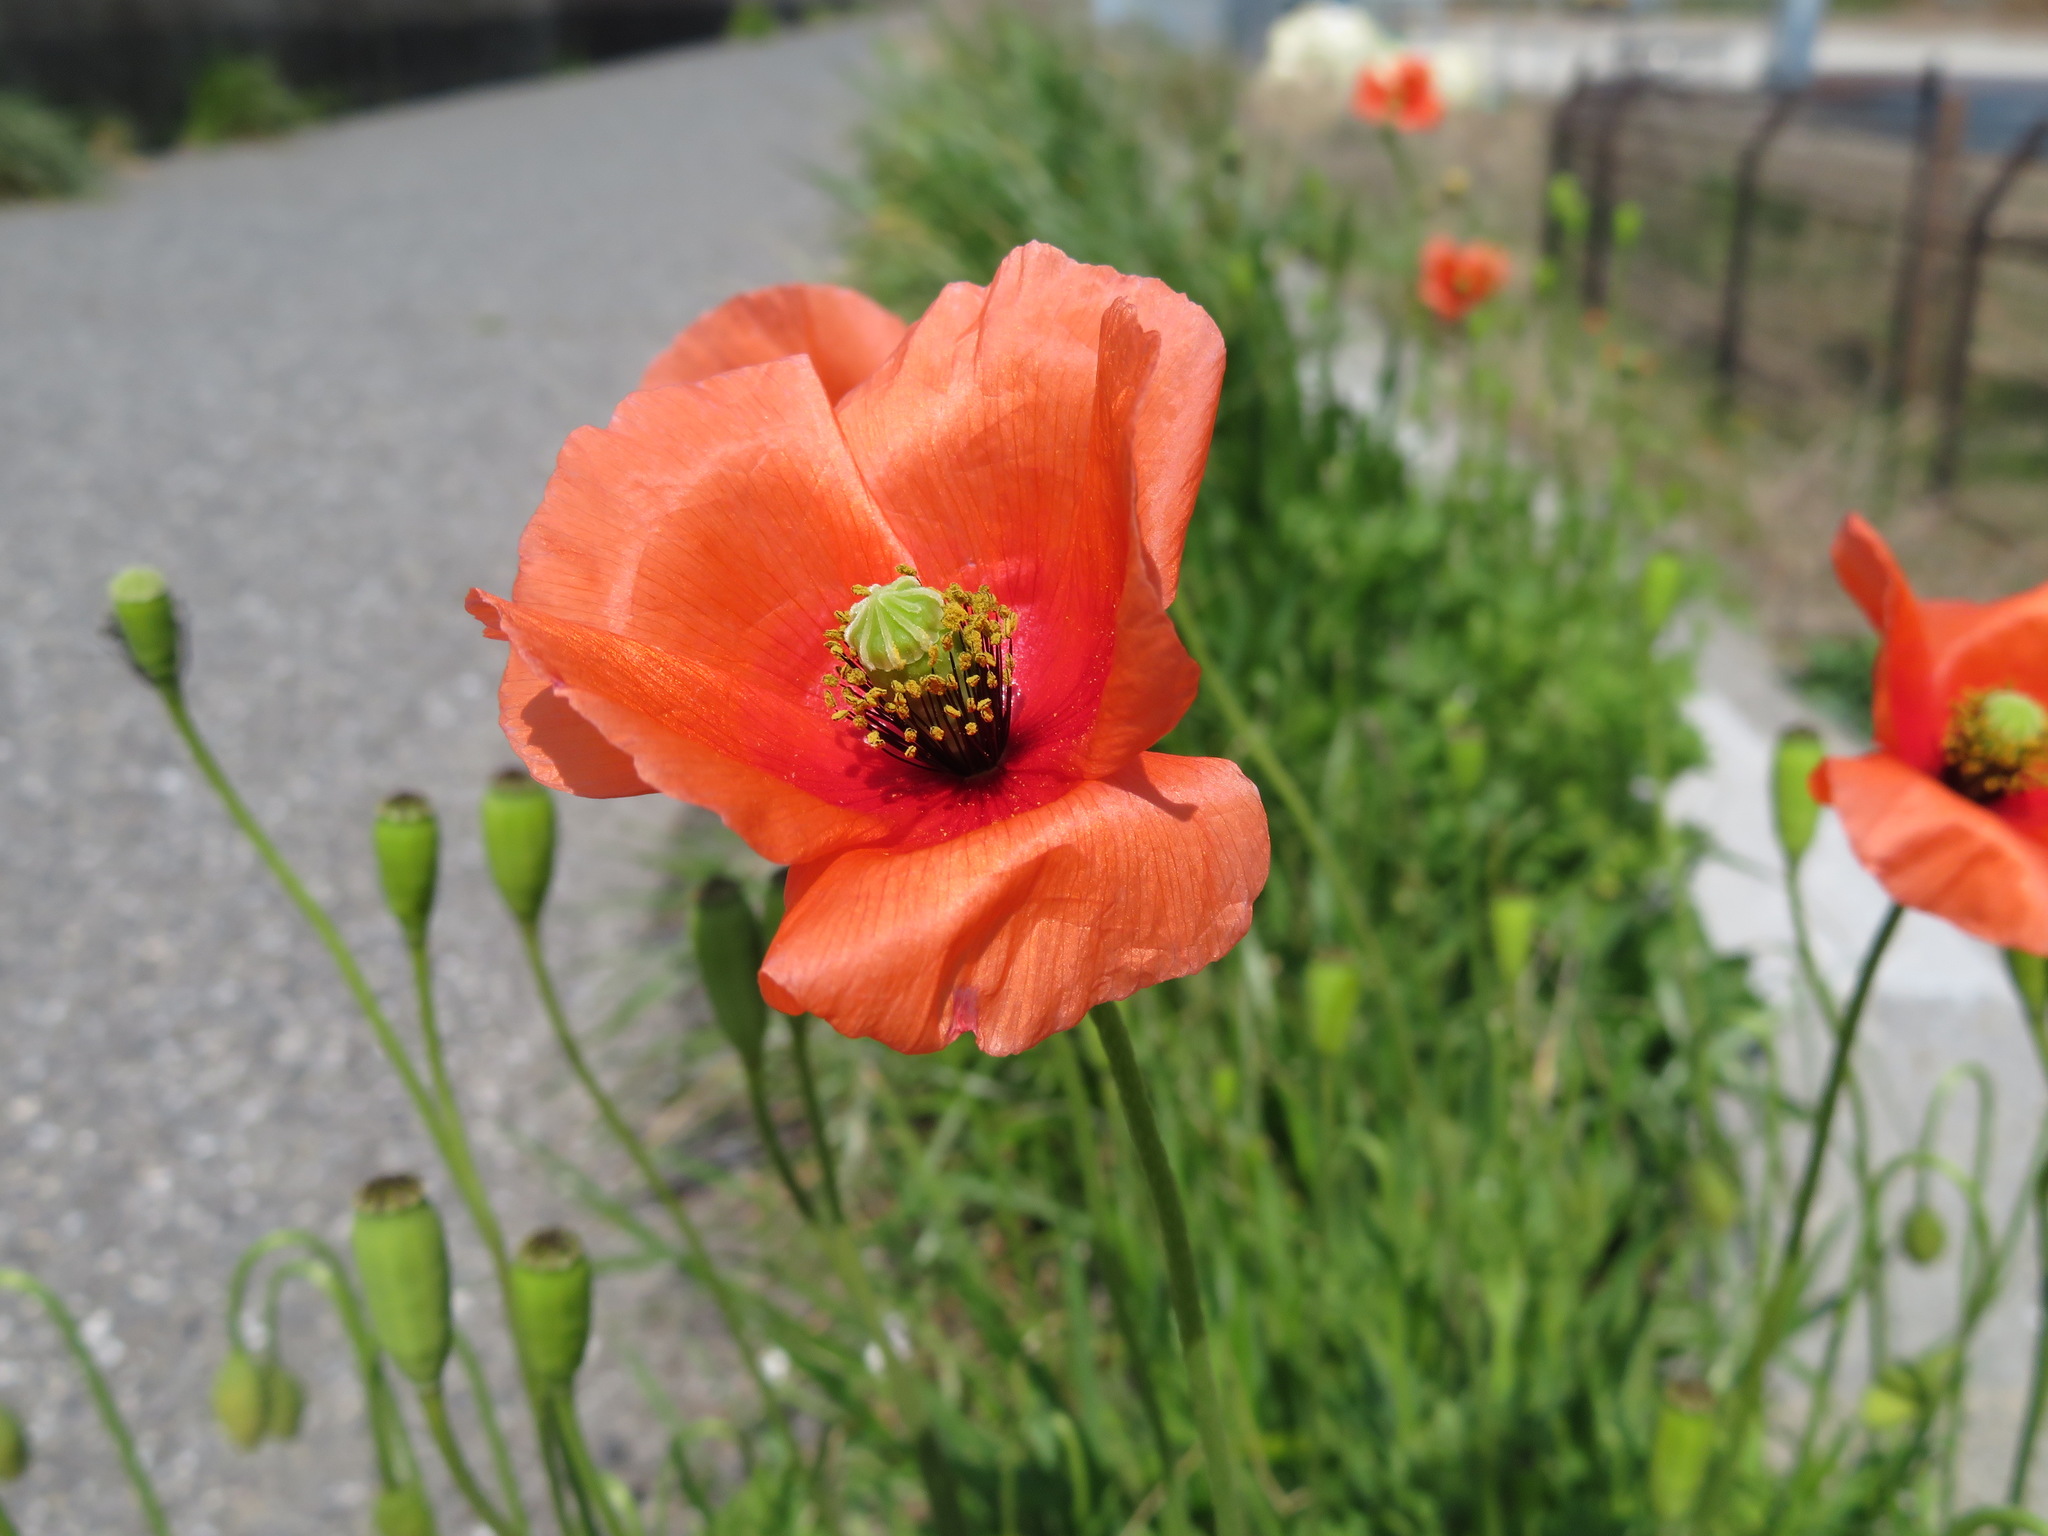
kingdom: Plantae
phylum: Tracheophyta
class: Magnoliopsida
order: Ranunculales
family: Papaveraceae
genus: Papaver
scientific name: Papaver dubium
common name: Long-headed poppy
